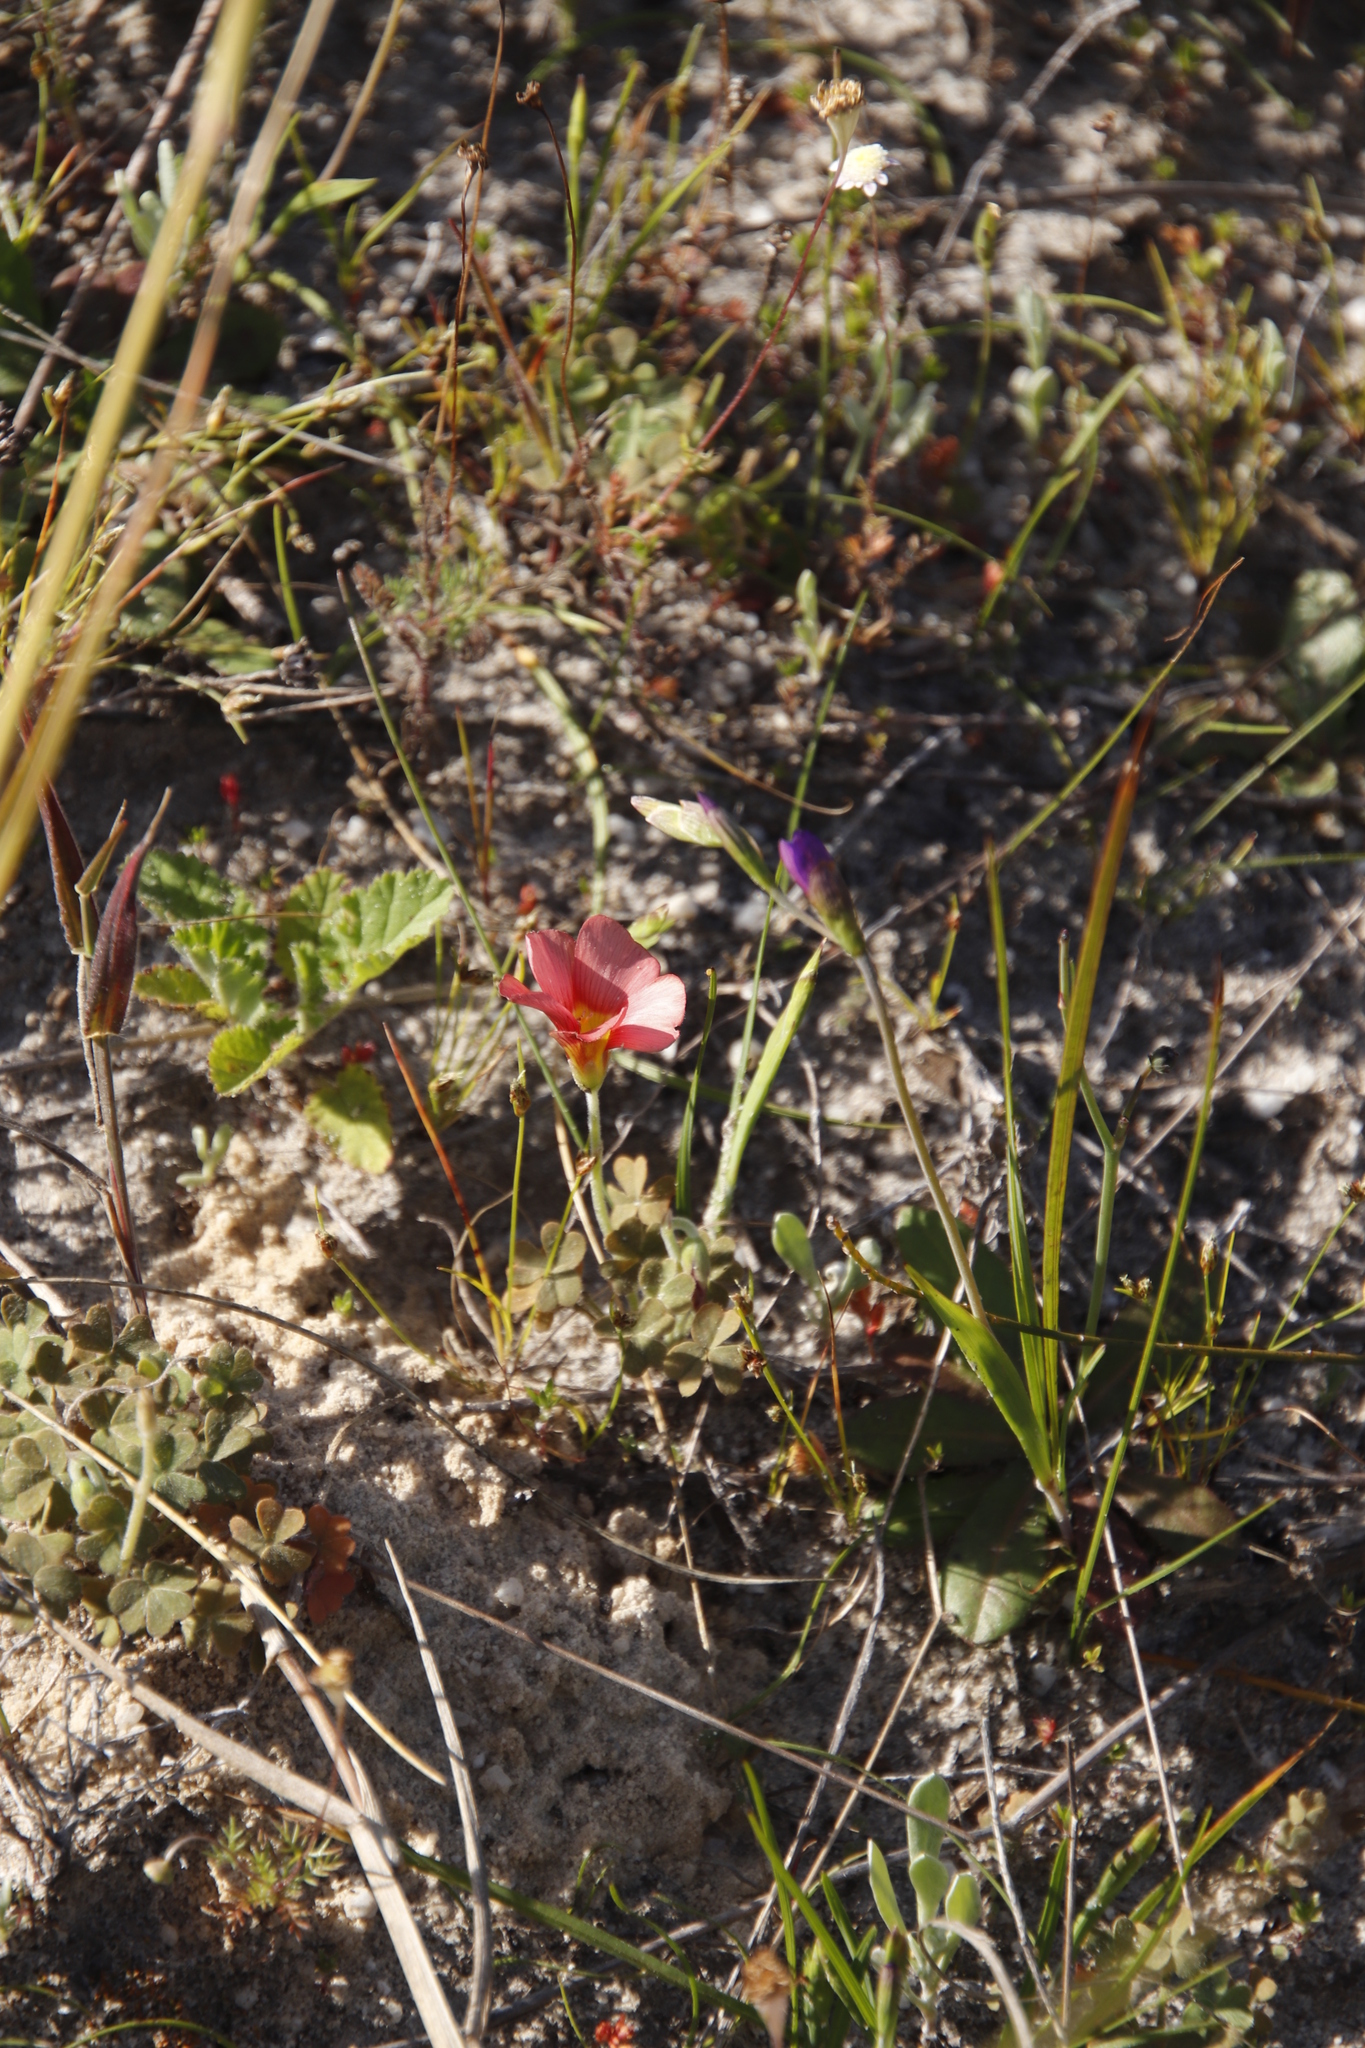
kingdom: Plantae
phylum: Tracheophyta
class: Magnoliopsida
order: Oxalidales
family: Oxalidaceae
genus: Oxalis
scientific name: Oxalis obtusa
